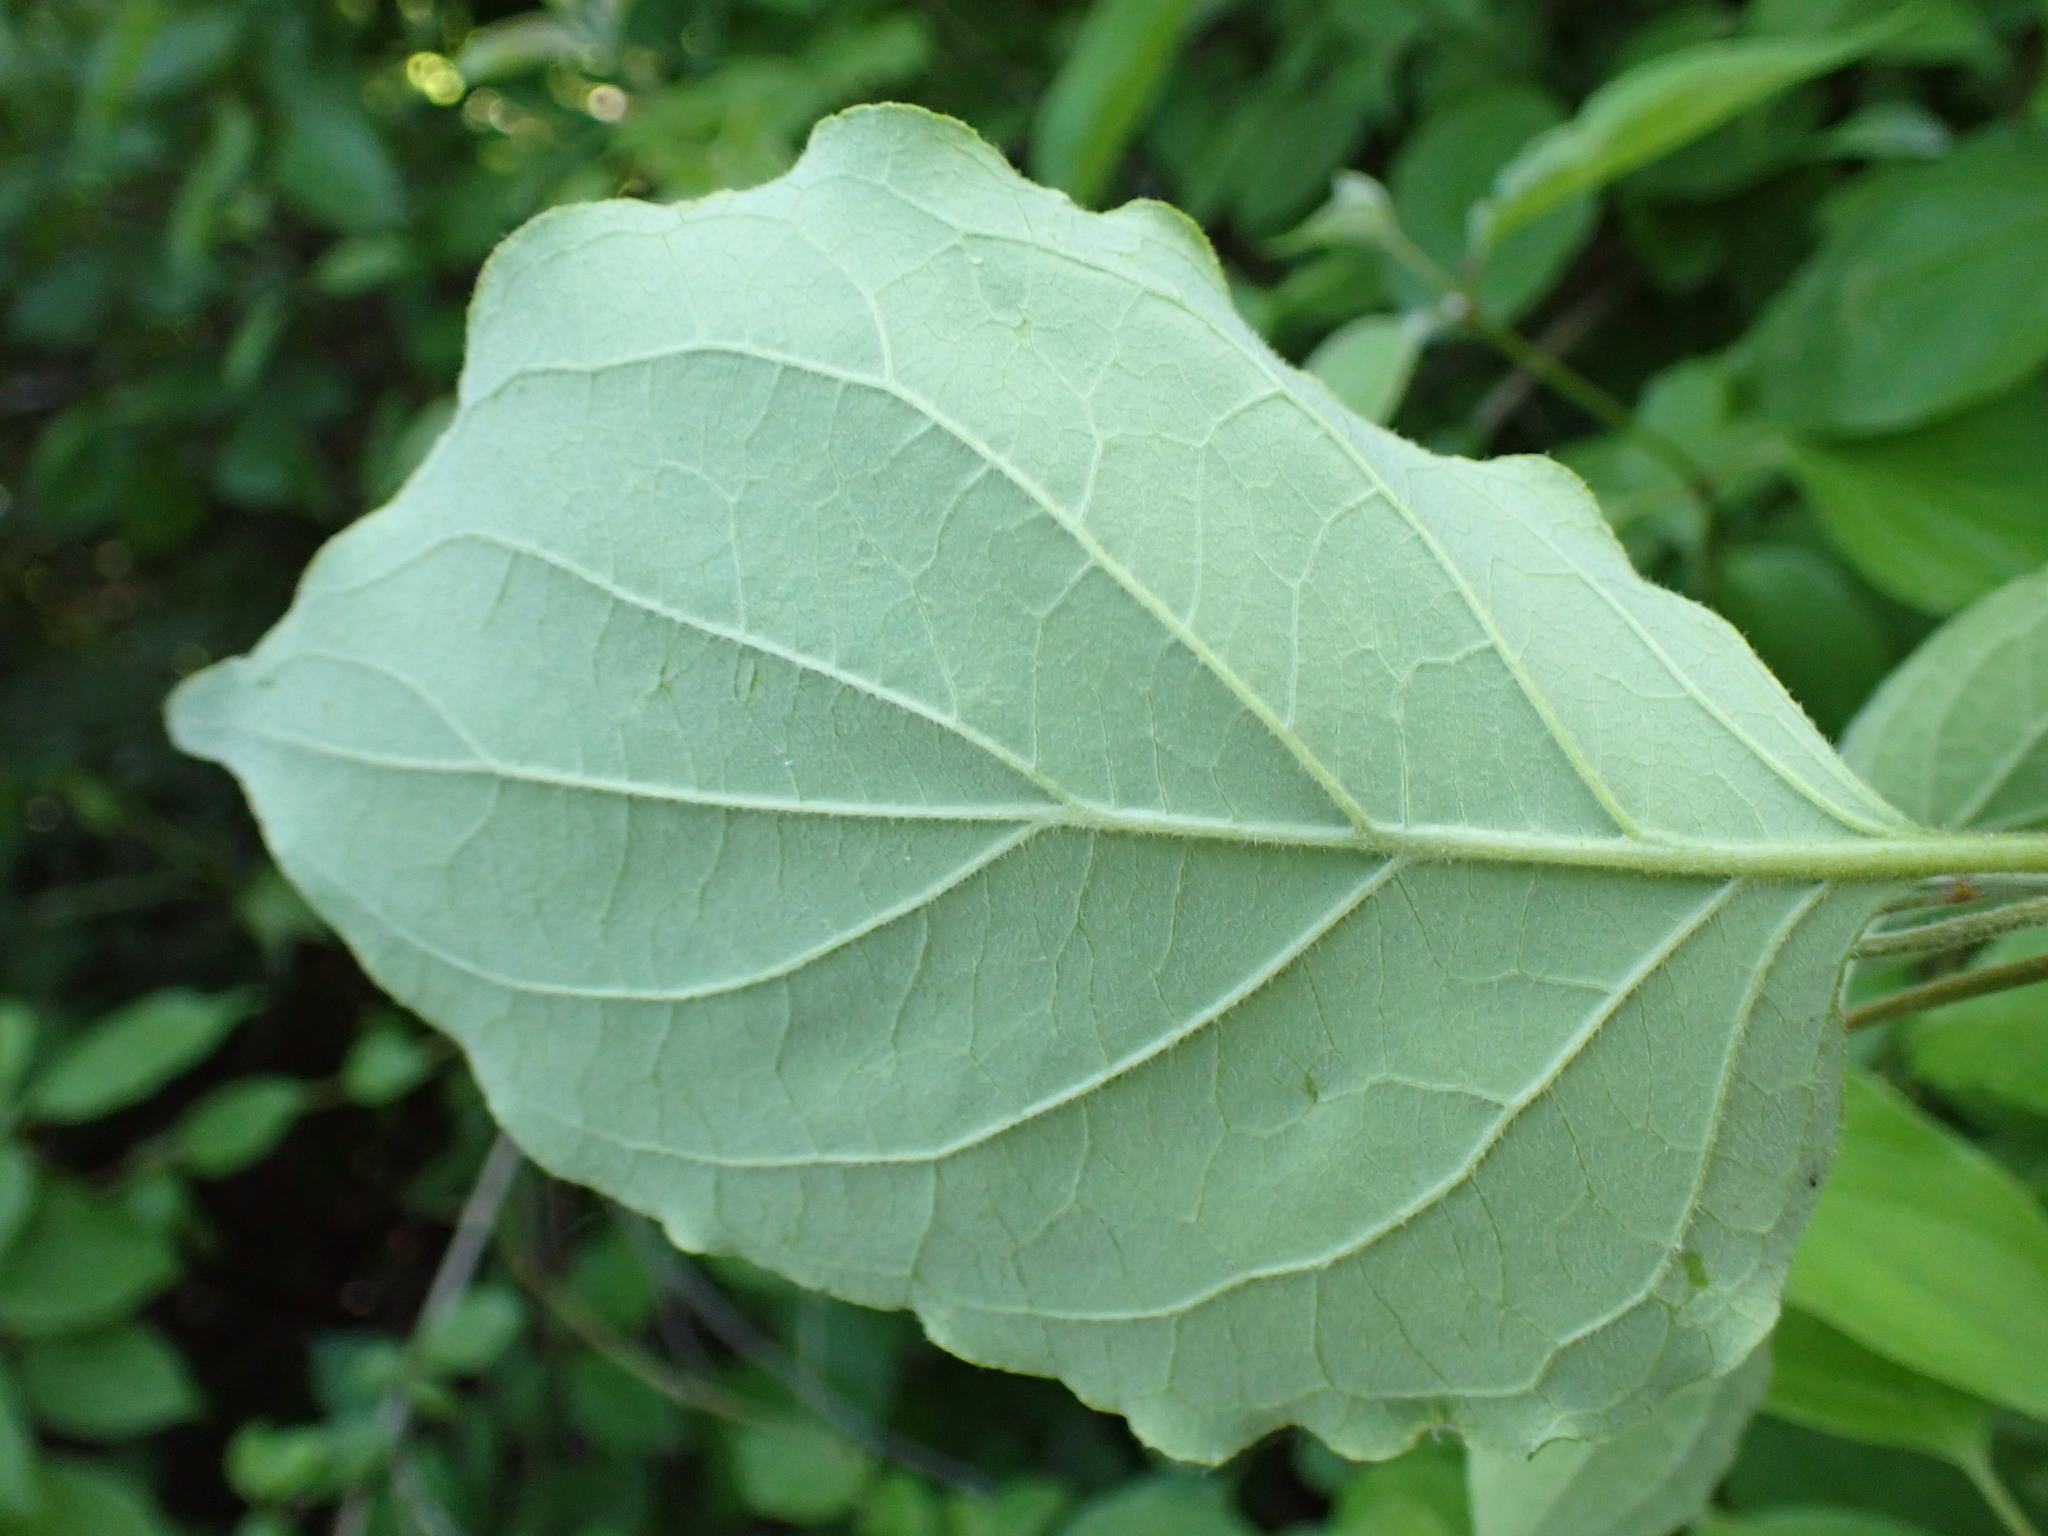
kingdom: Plantae
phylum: Tracheophyta
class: Magnoliopsida
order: Cornales
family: Cornaceae
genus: Cornus
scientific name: Cornus drummondii
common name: Rough-leaf dogwood
